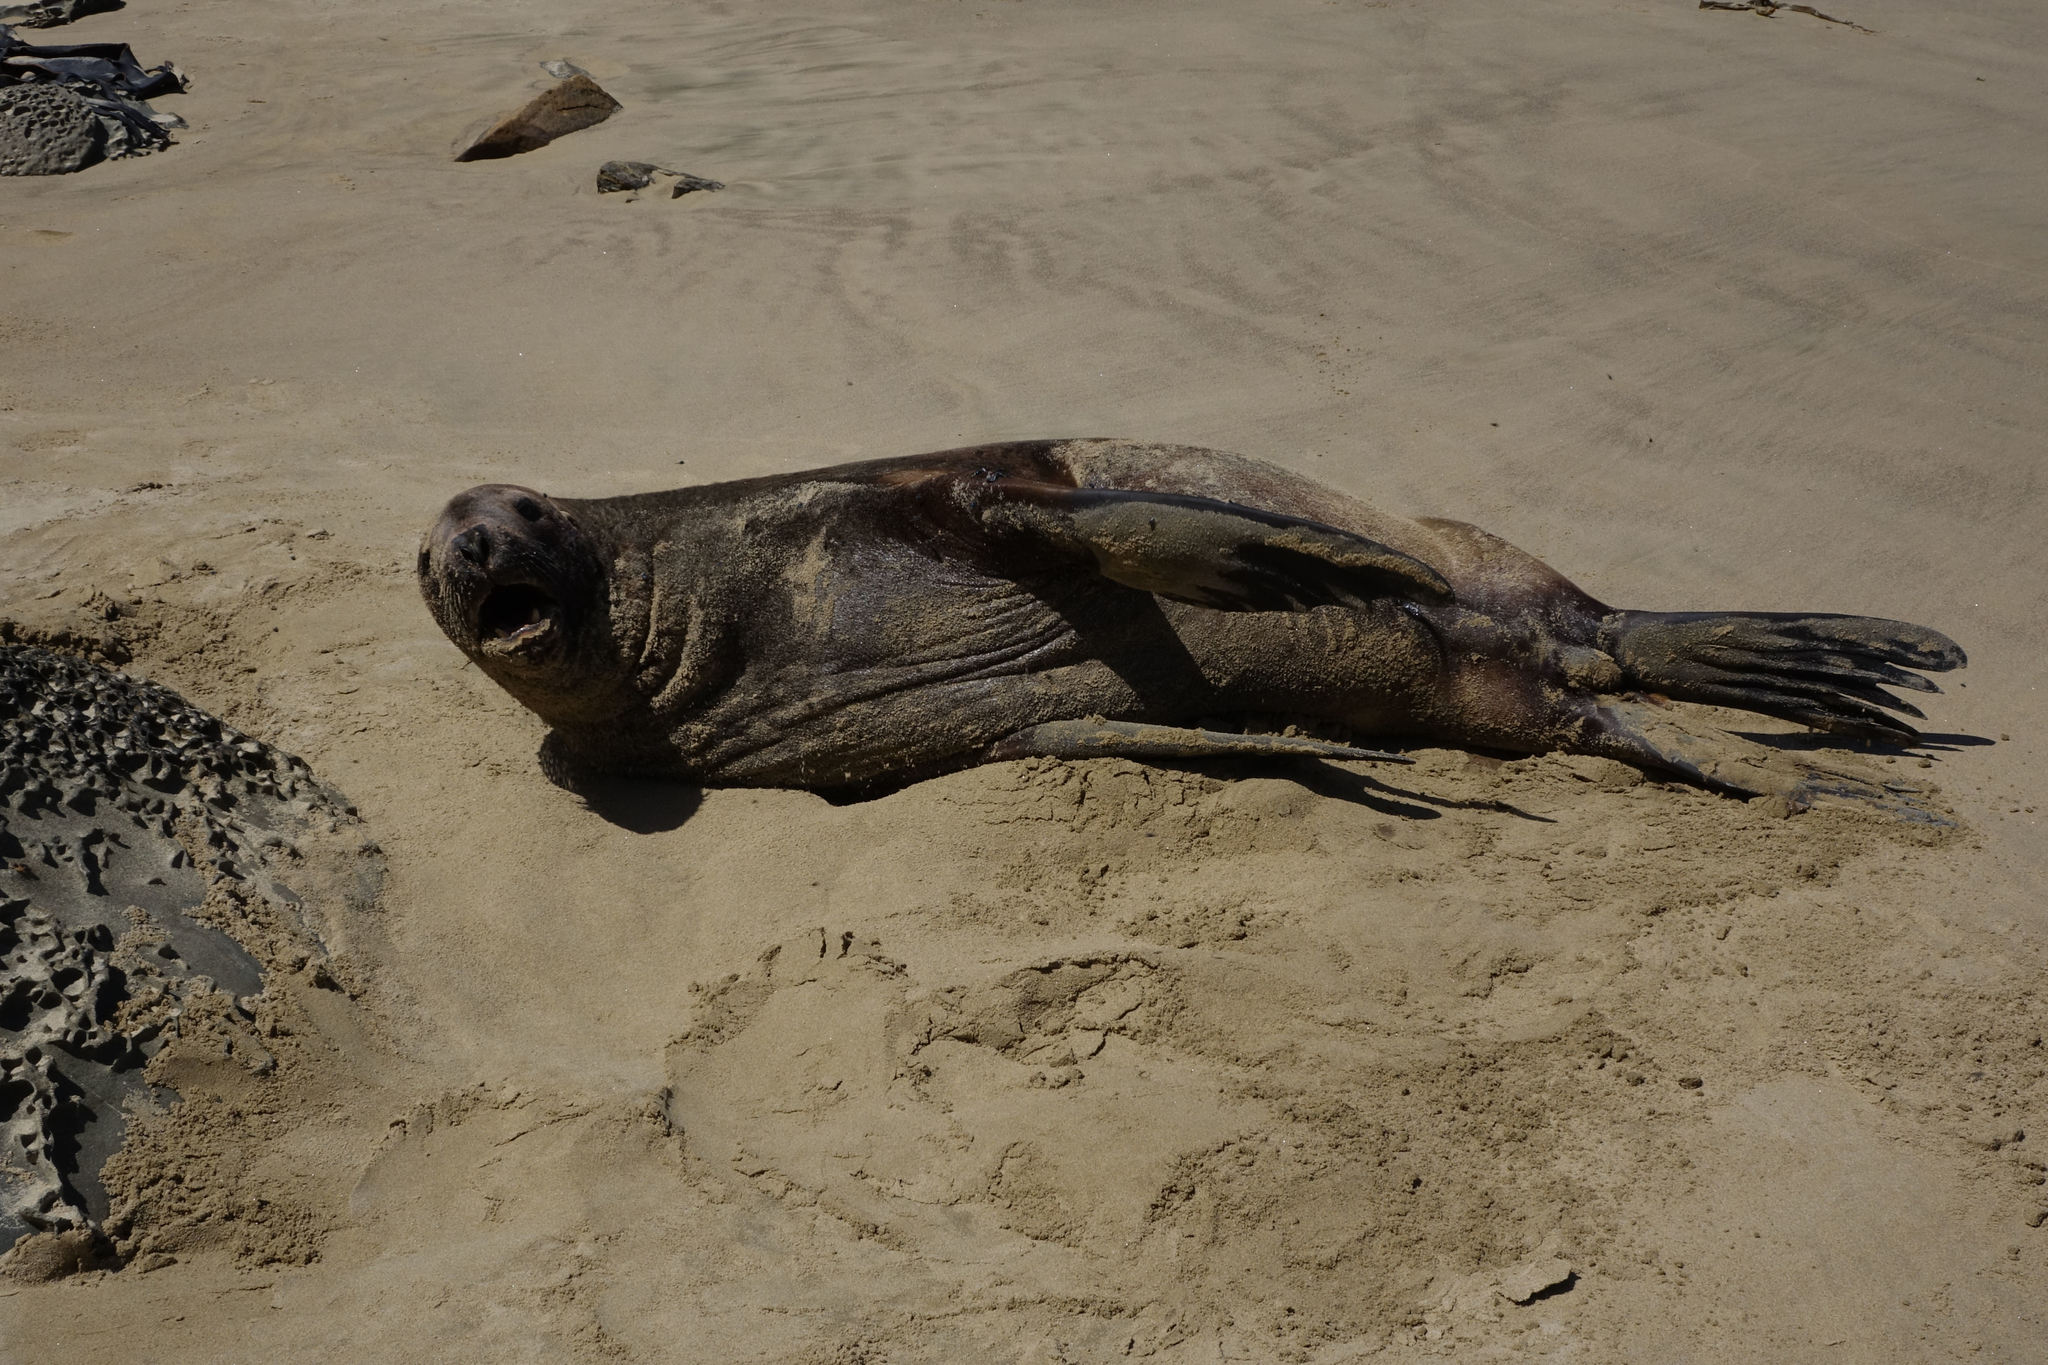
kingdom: Animalia
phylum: Chordata
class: Mammalia
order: Carnivora
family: Otariidae
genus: Phocarctos
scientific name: Phocarctos hookeri
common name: New zealand sea lion
